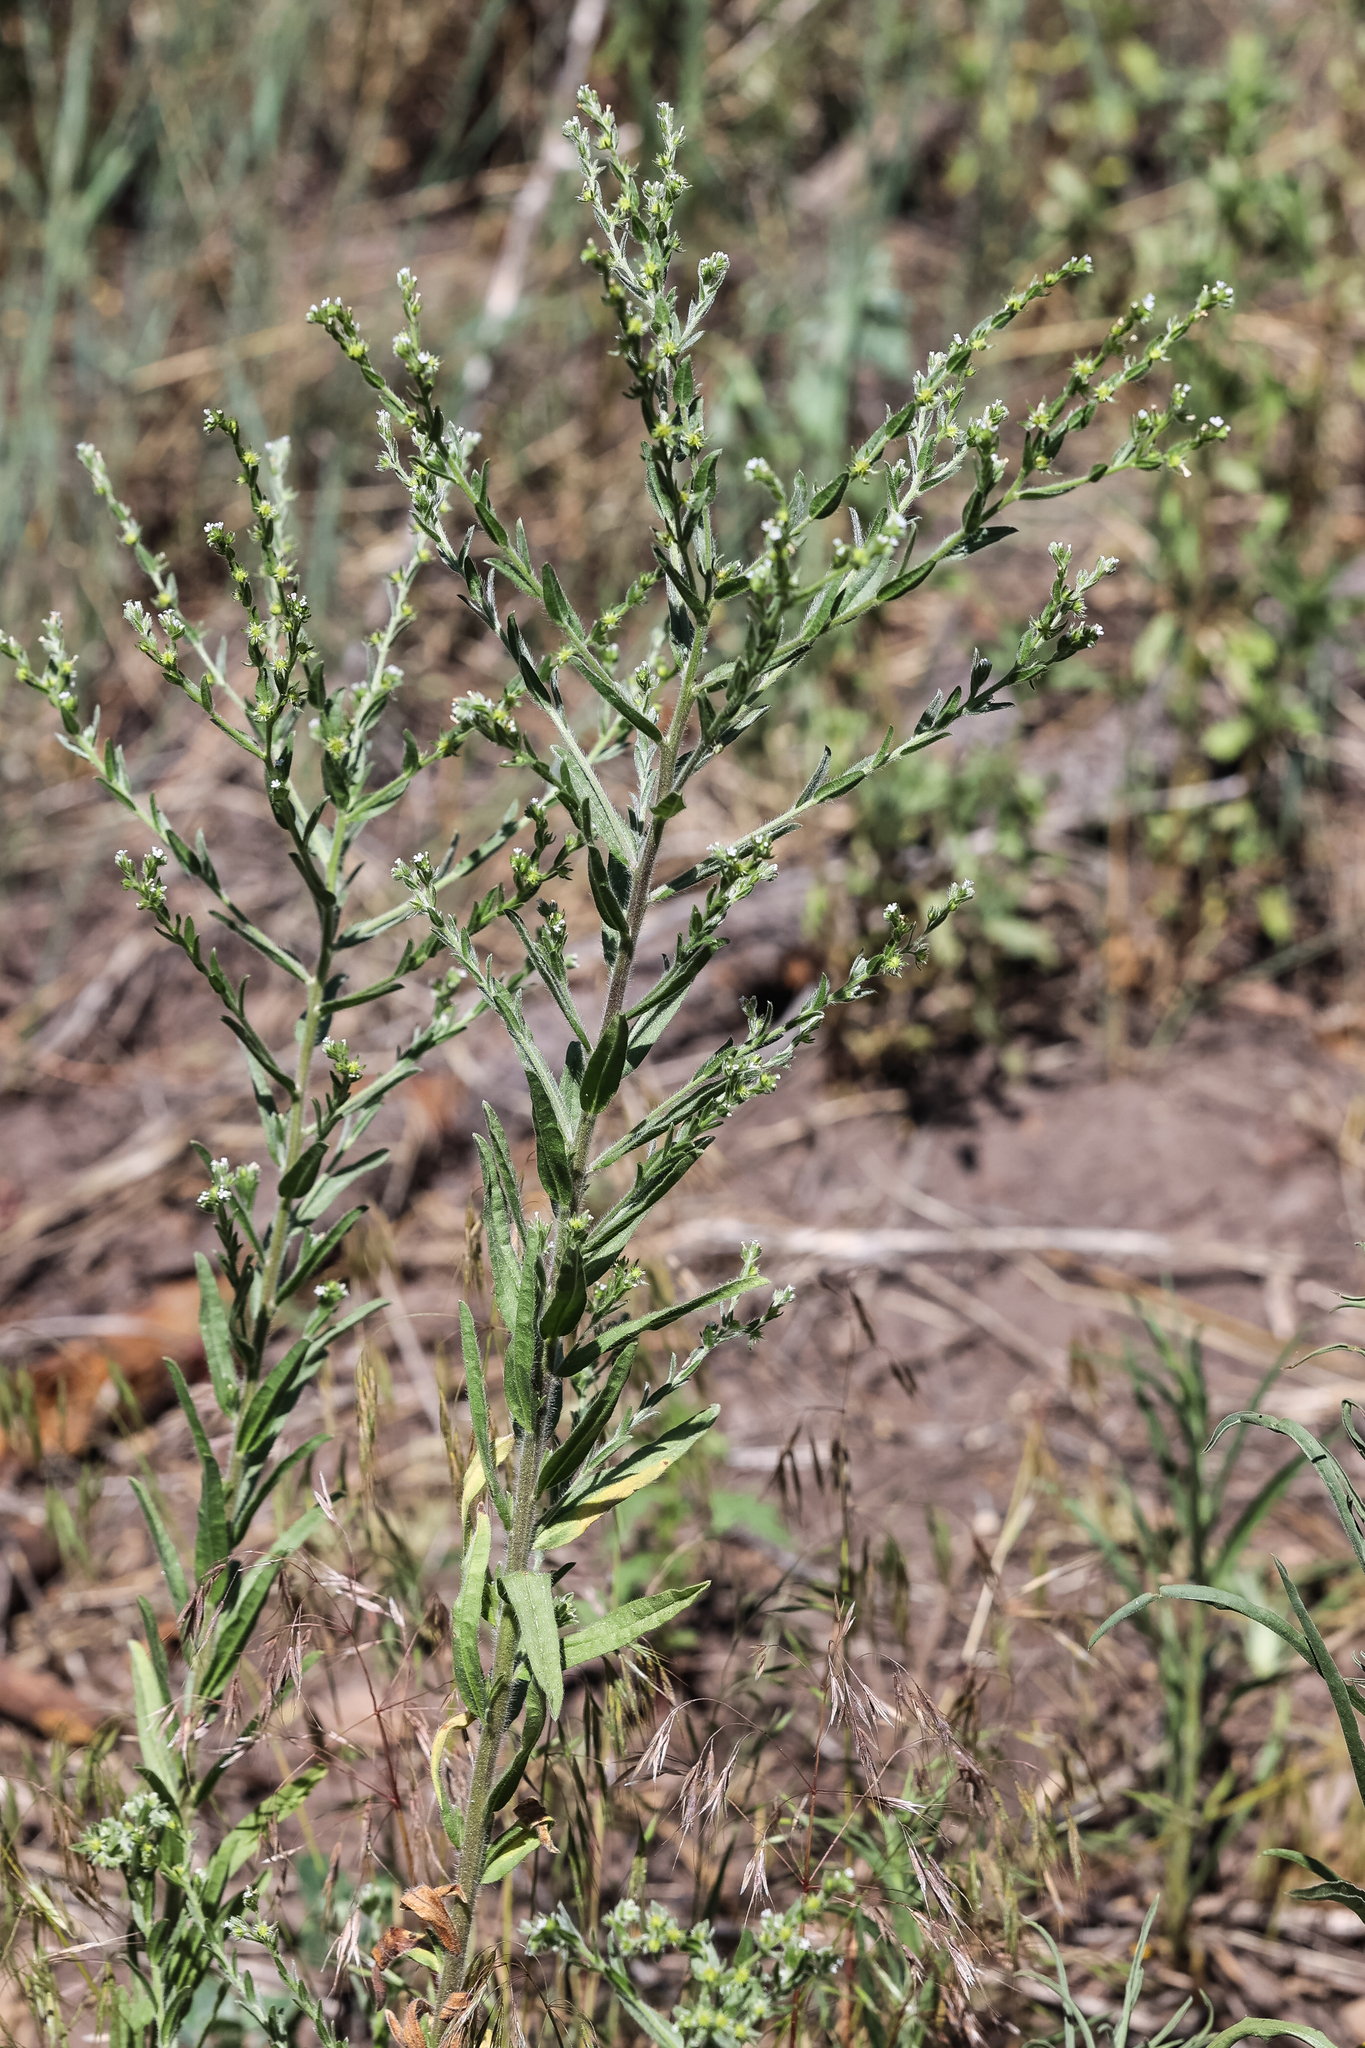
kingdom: Plantae
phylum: Tracheophyta
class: Magnoliopsida
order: Boraginales
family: Boraginaceae
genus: Lappula
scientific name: Lappula occidentalis
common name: Western stickseed
